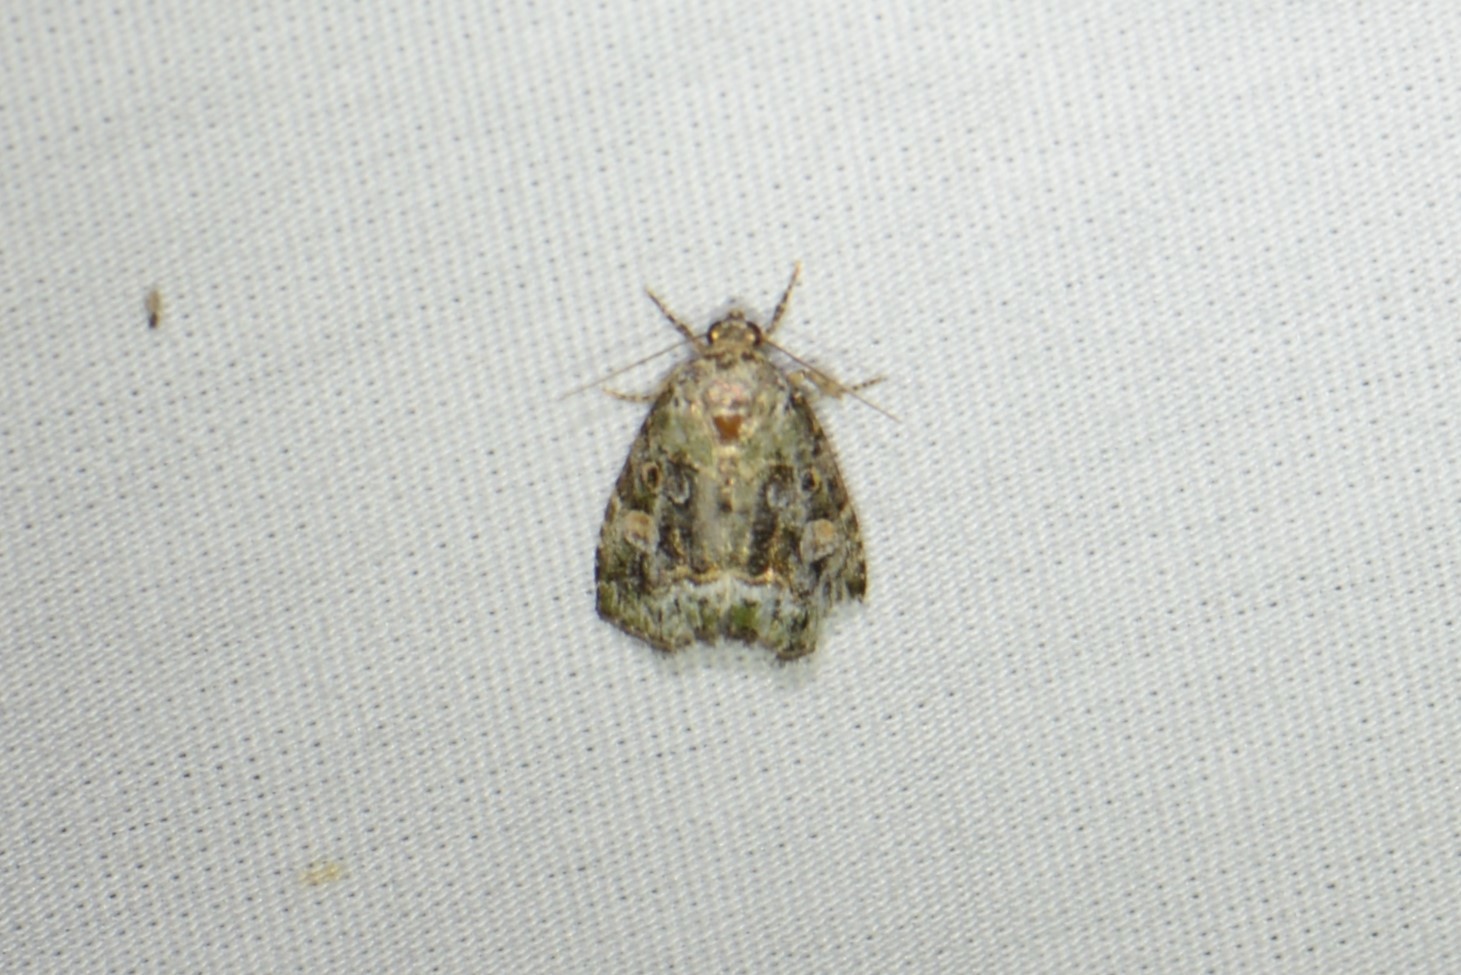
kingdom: Animalia
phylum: Arthropoda
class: Insecta
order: Lepidoptera
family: Noctuidae
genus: Lithacodia
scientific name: Lithacodia musta
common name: Small mossy glyph
